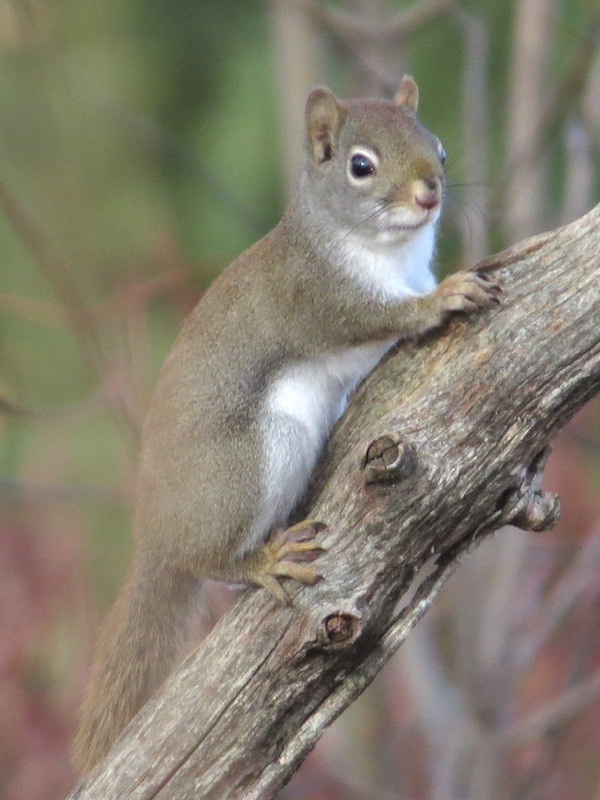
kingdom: Animalia
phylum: Chordata
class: Mammalia
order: Rodentia
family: Sciuridae
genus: Tamiasciurus
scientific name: Tamiasciurus hudsonicus
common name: Red squirrel
